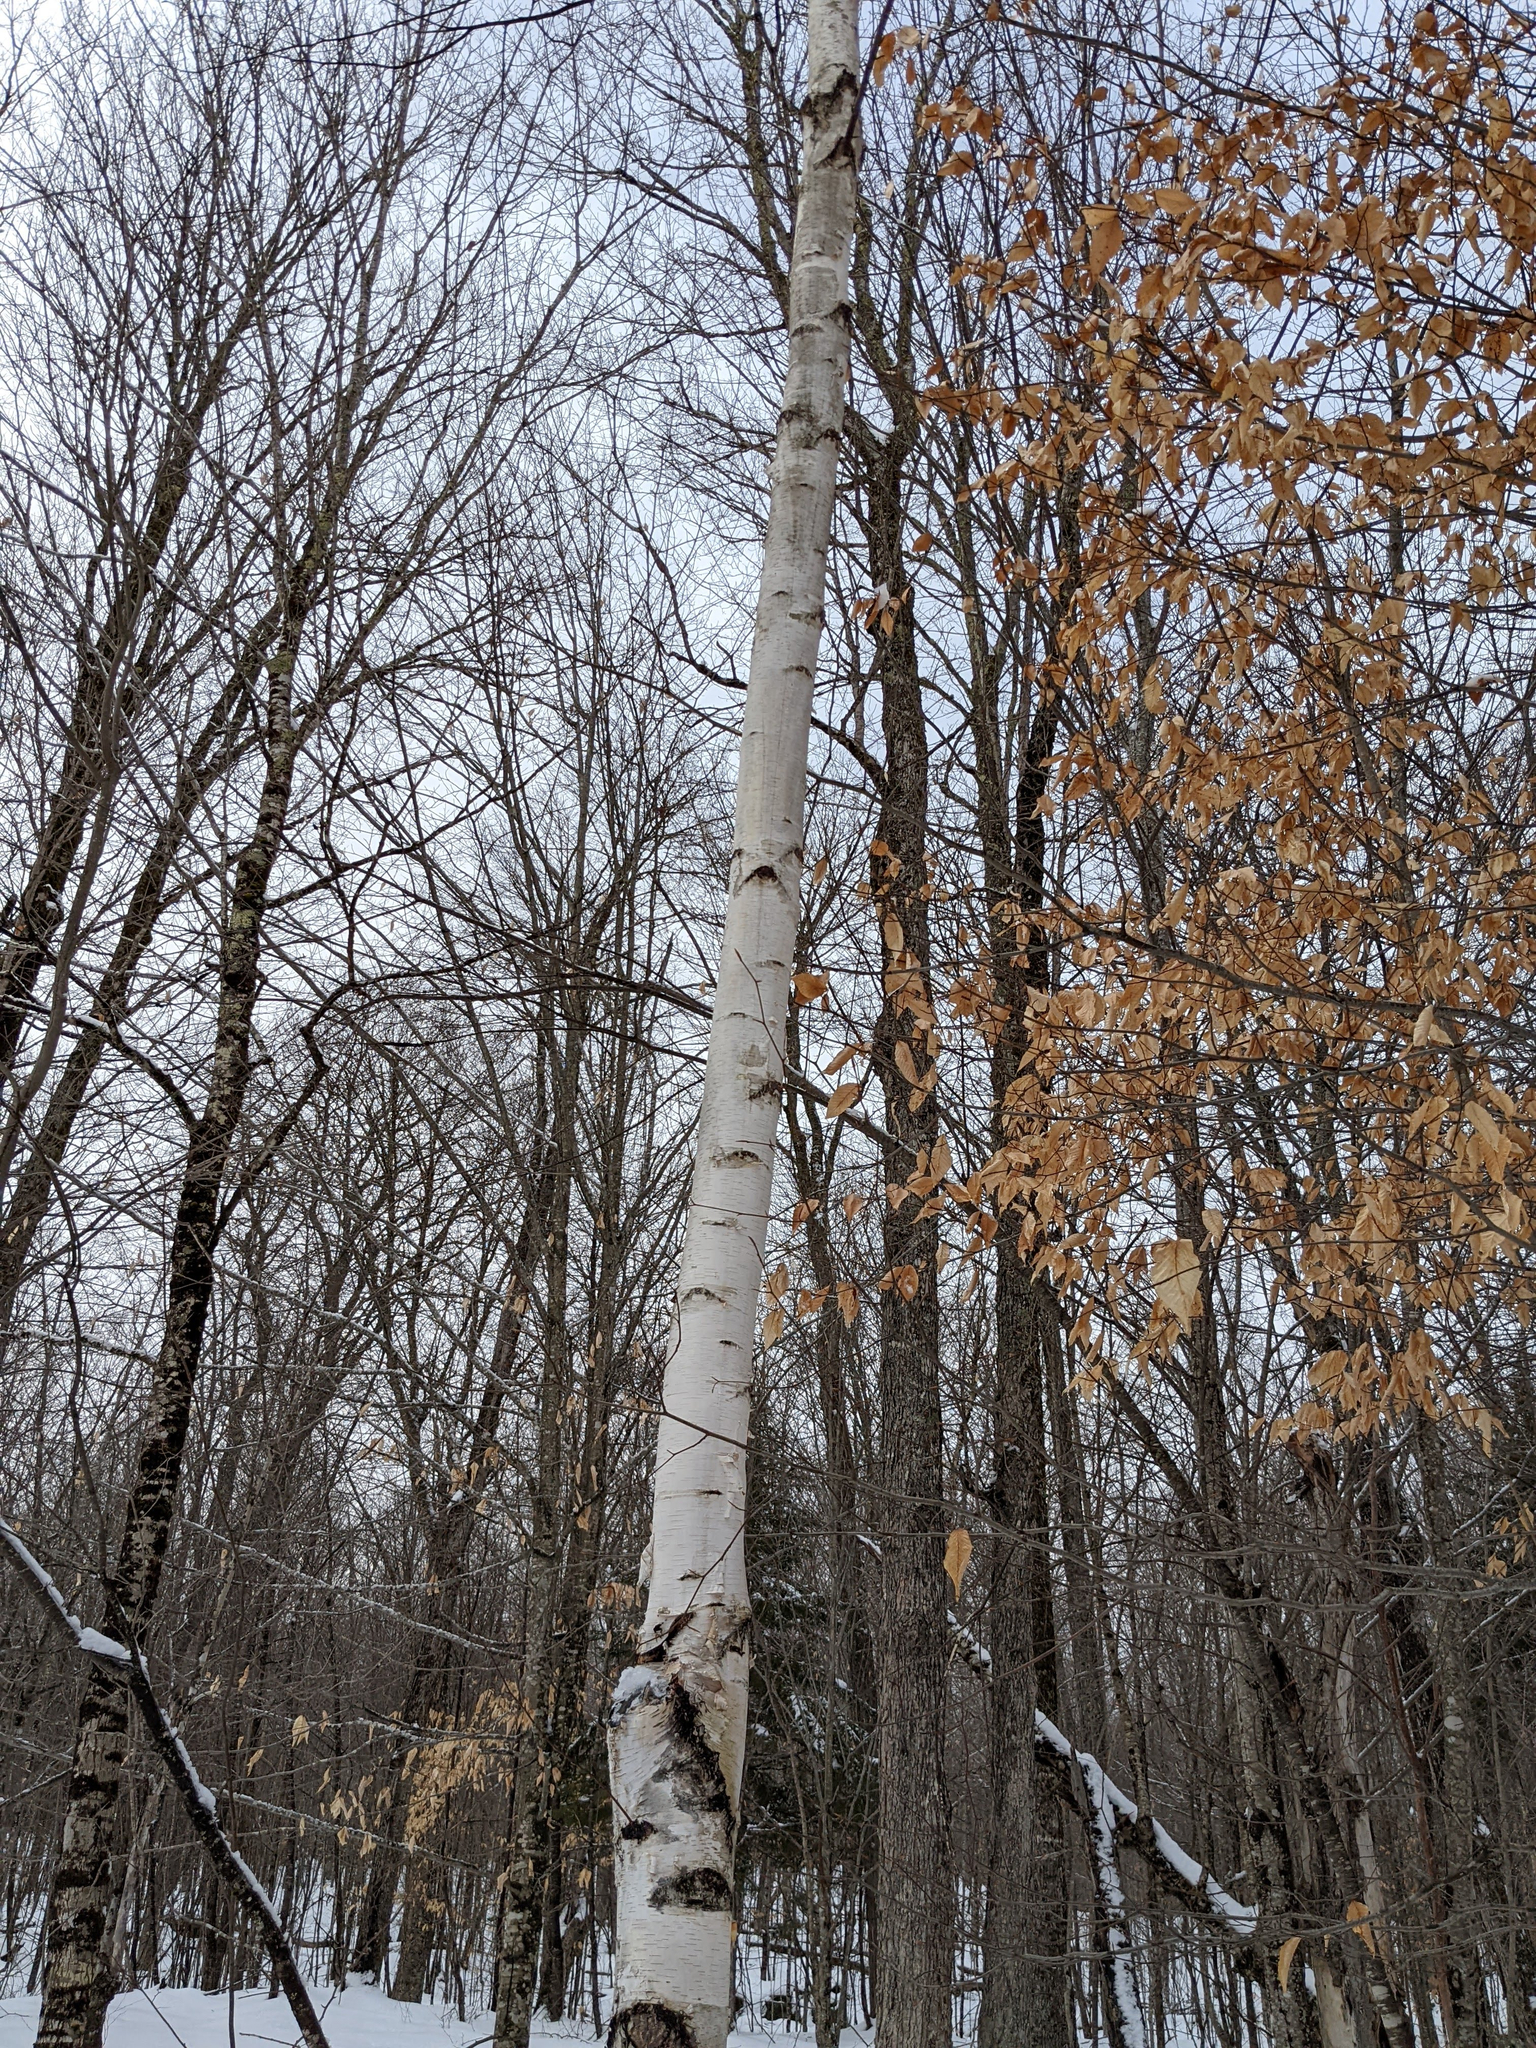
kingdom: Plantae
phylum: Tracheophyta
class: Magnoliopsida
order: Fagales
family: Fagaceae
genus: Fagus
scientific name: Fagus grandifolia
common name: American beech
